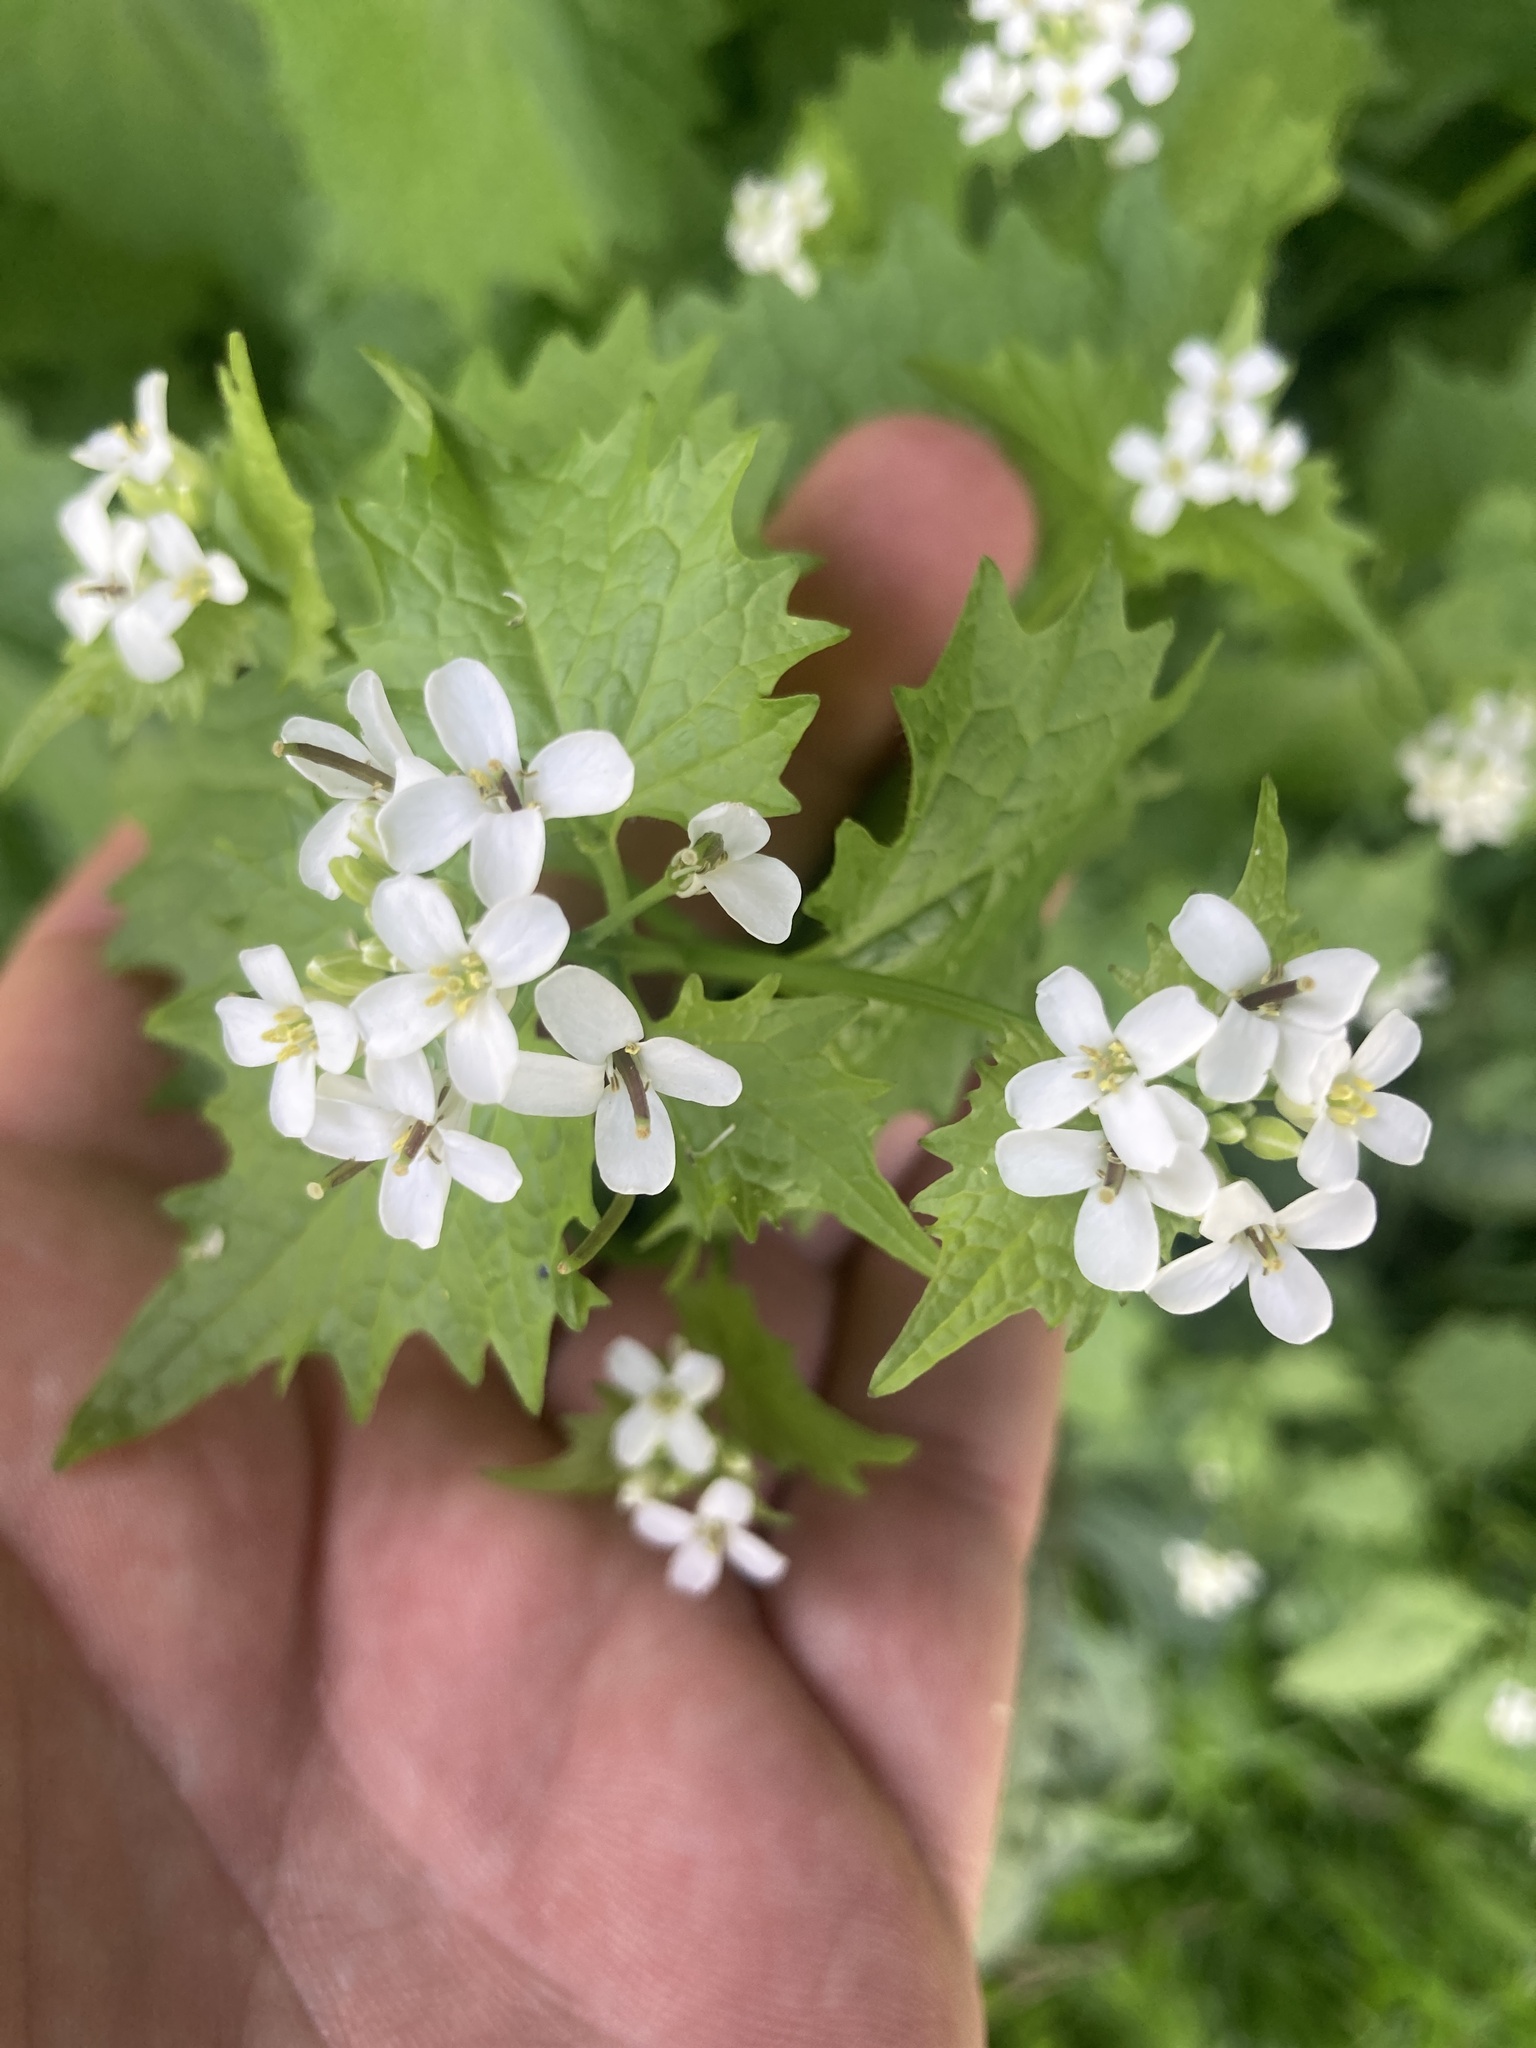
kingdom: Plantae
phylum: Tracheophyta
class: Magnoliopsida
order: Brassicales
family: Brassicaceae
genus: Alliaria
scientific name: Alliaria petiolata
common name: Garlic mustard
